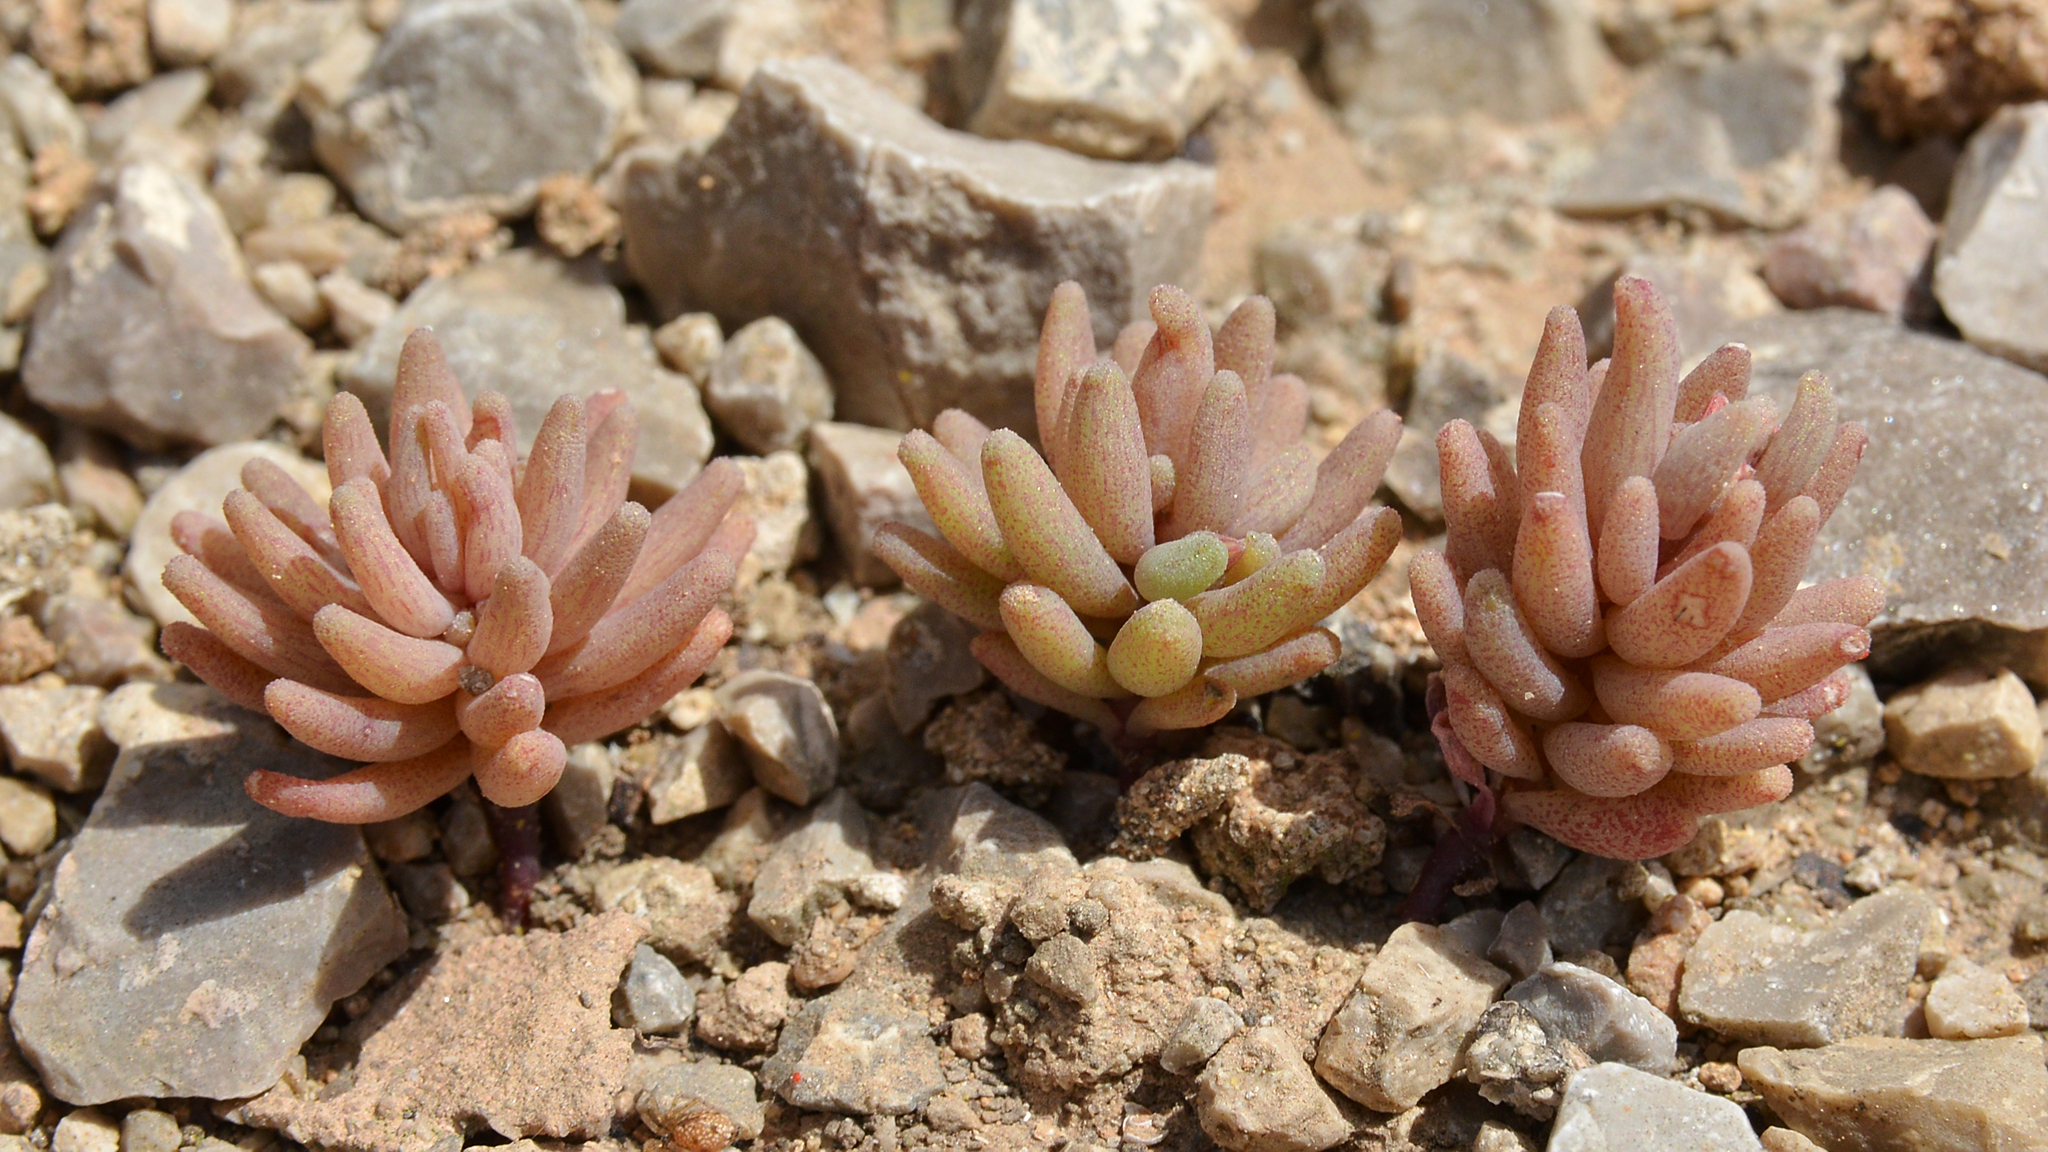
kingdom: Plantae
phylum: Tracheophyta
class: Magnoliopsida
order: Saxifragales
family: Crassulaceae
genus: Sedum
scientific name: Sedum rubens
